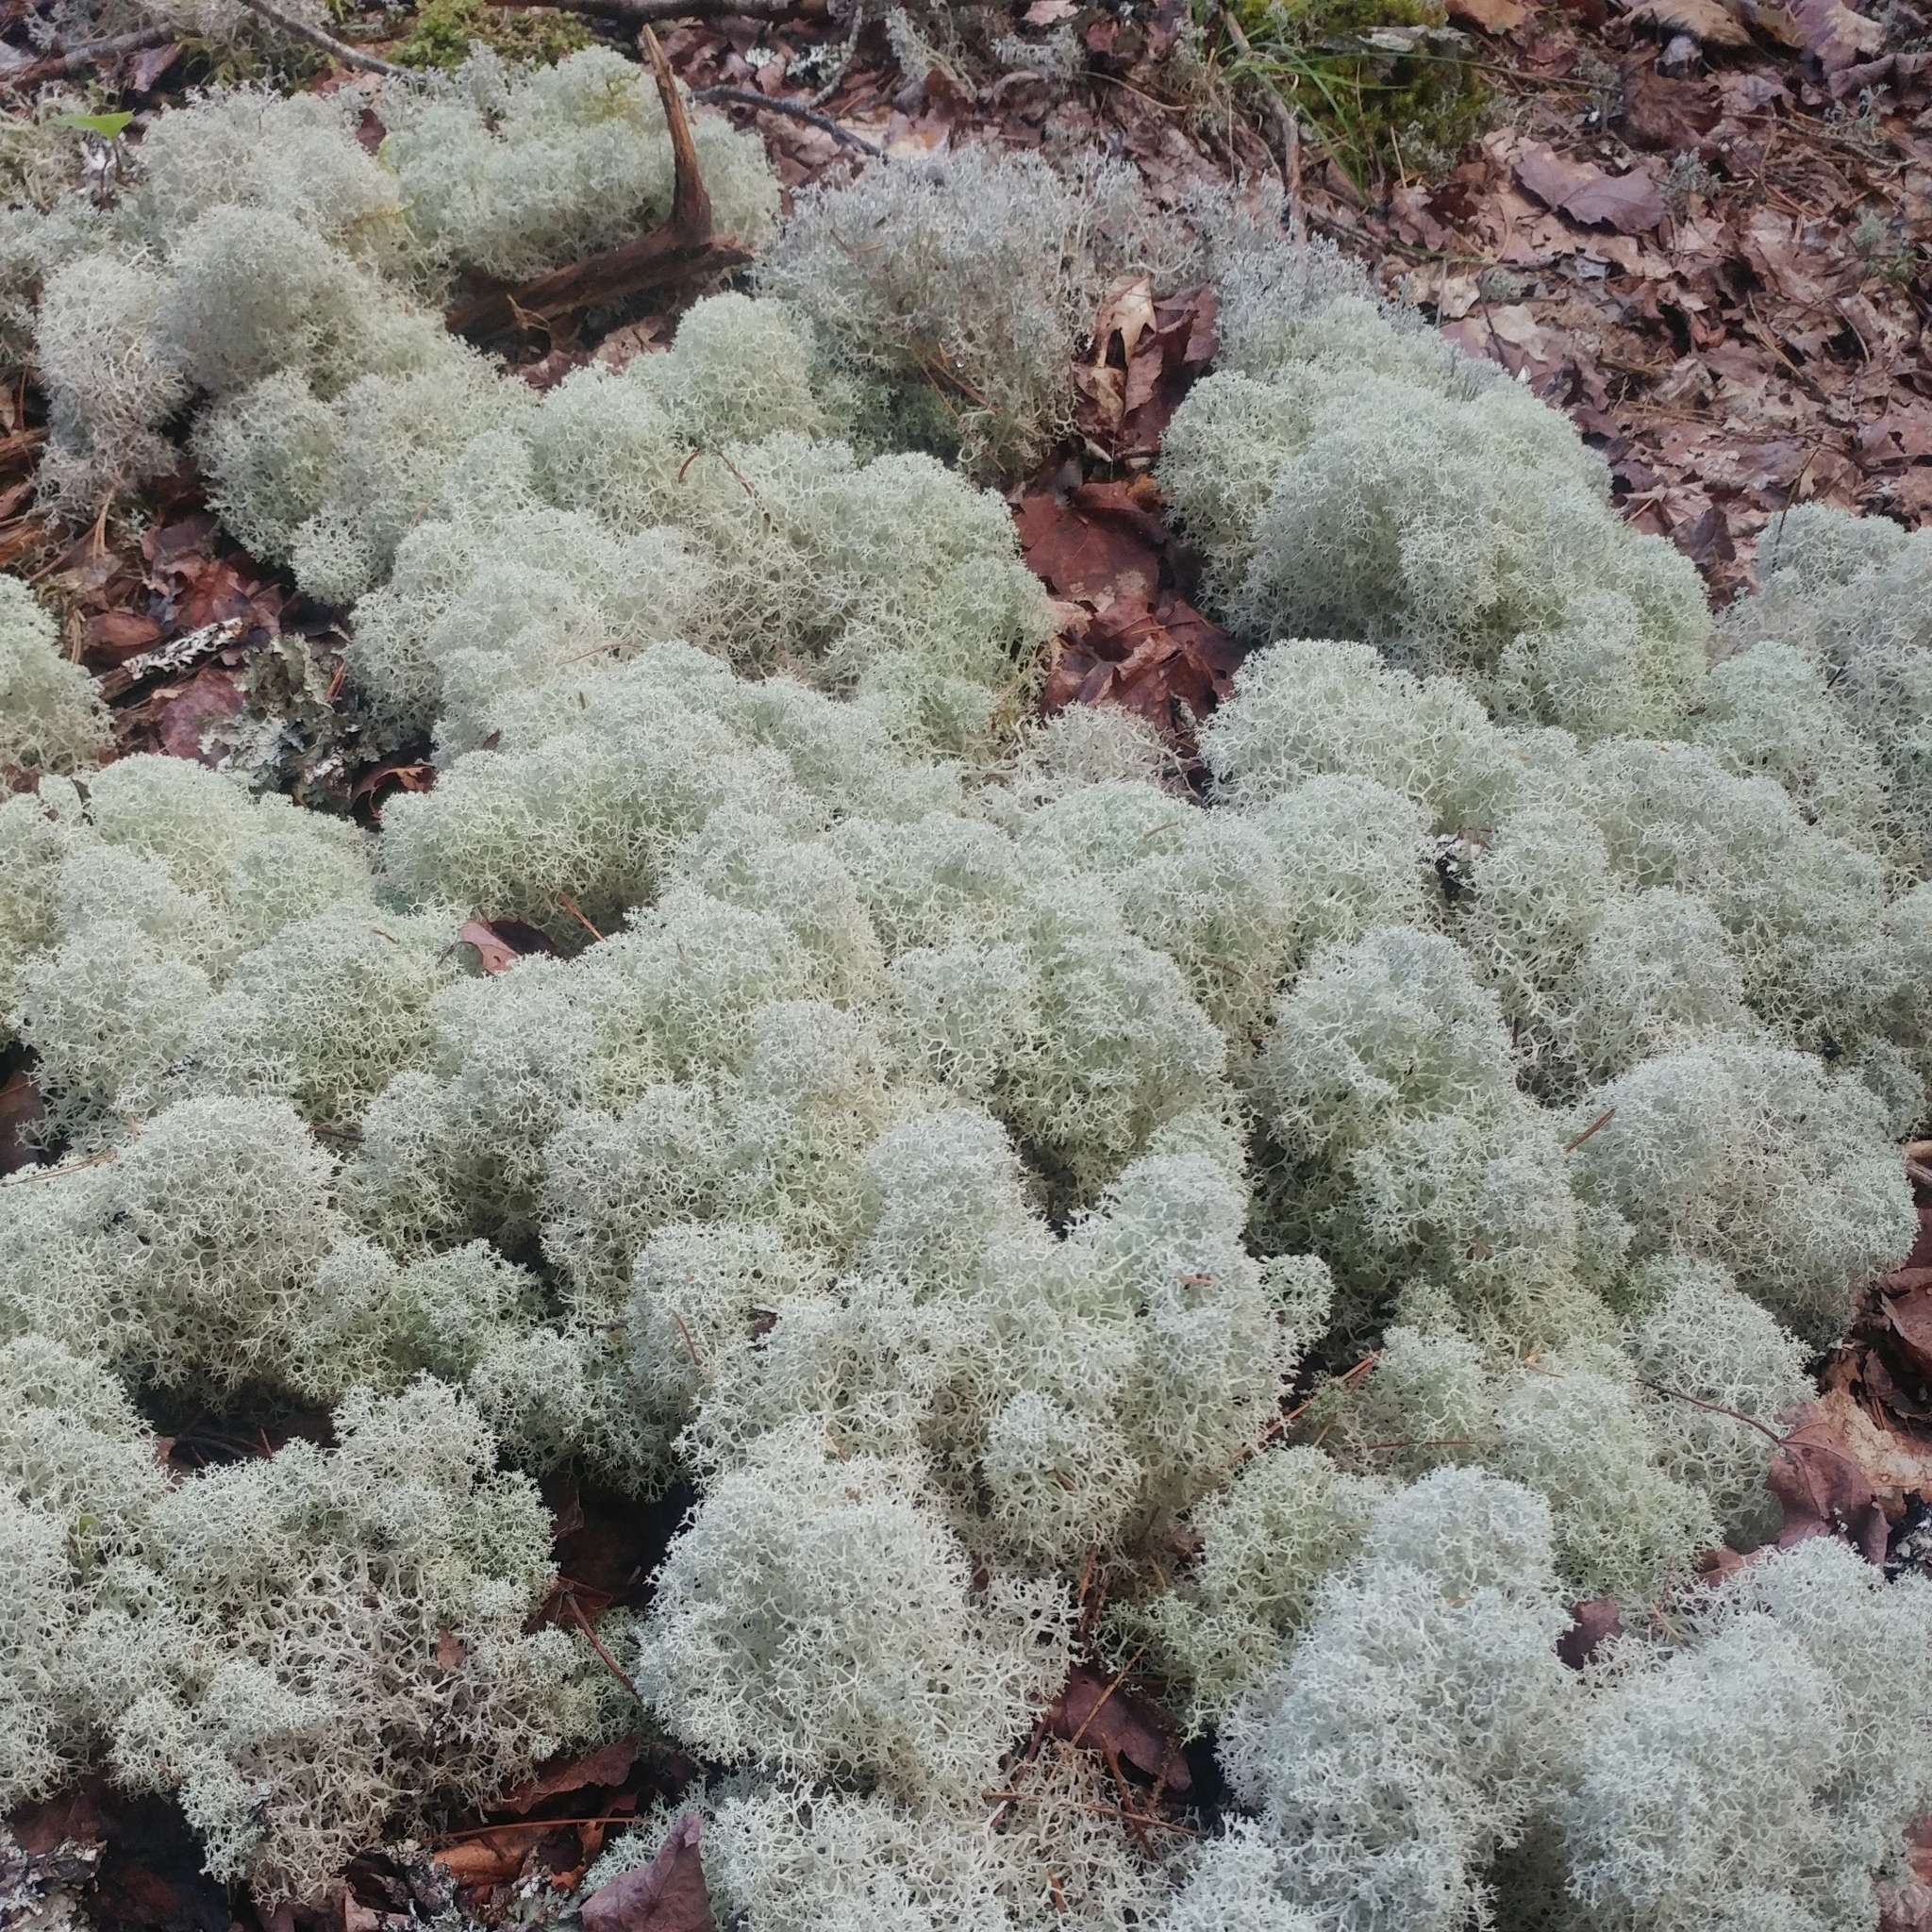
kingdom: Fungi
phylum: Ascomycota
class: Lecanoromycetes
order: Lecanorales
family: Cladoniaceae
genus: Cladonia
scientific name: Cladonia stellaris
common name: Star-tipped reindeer lichen
